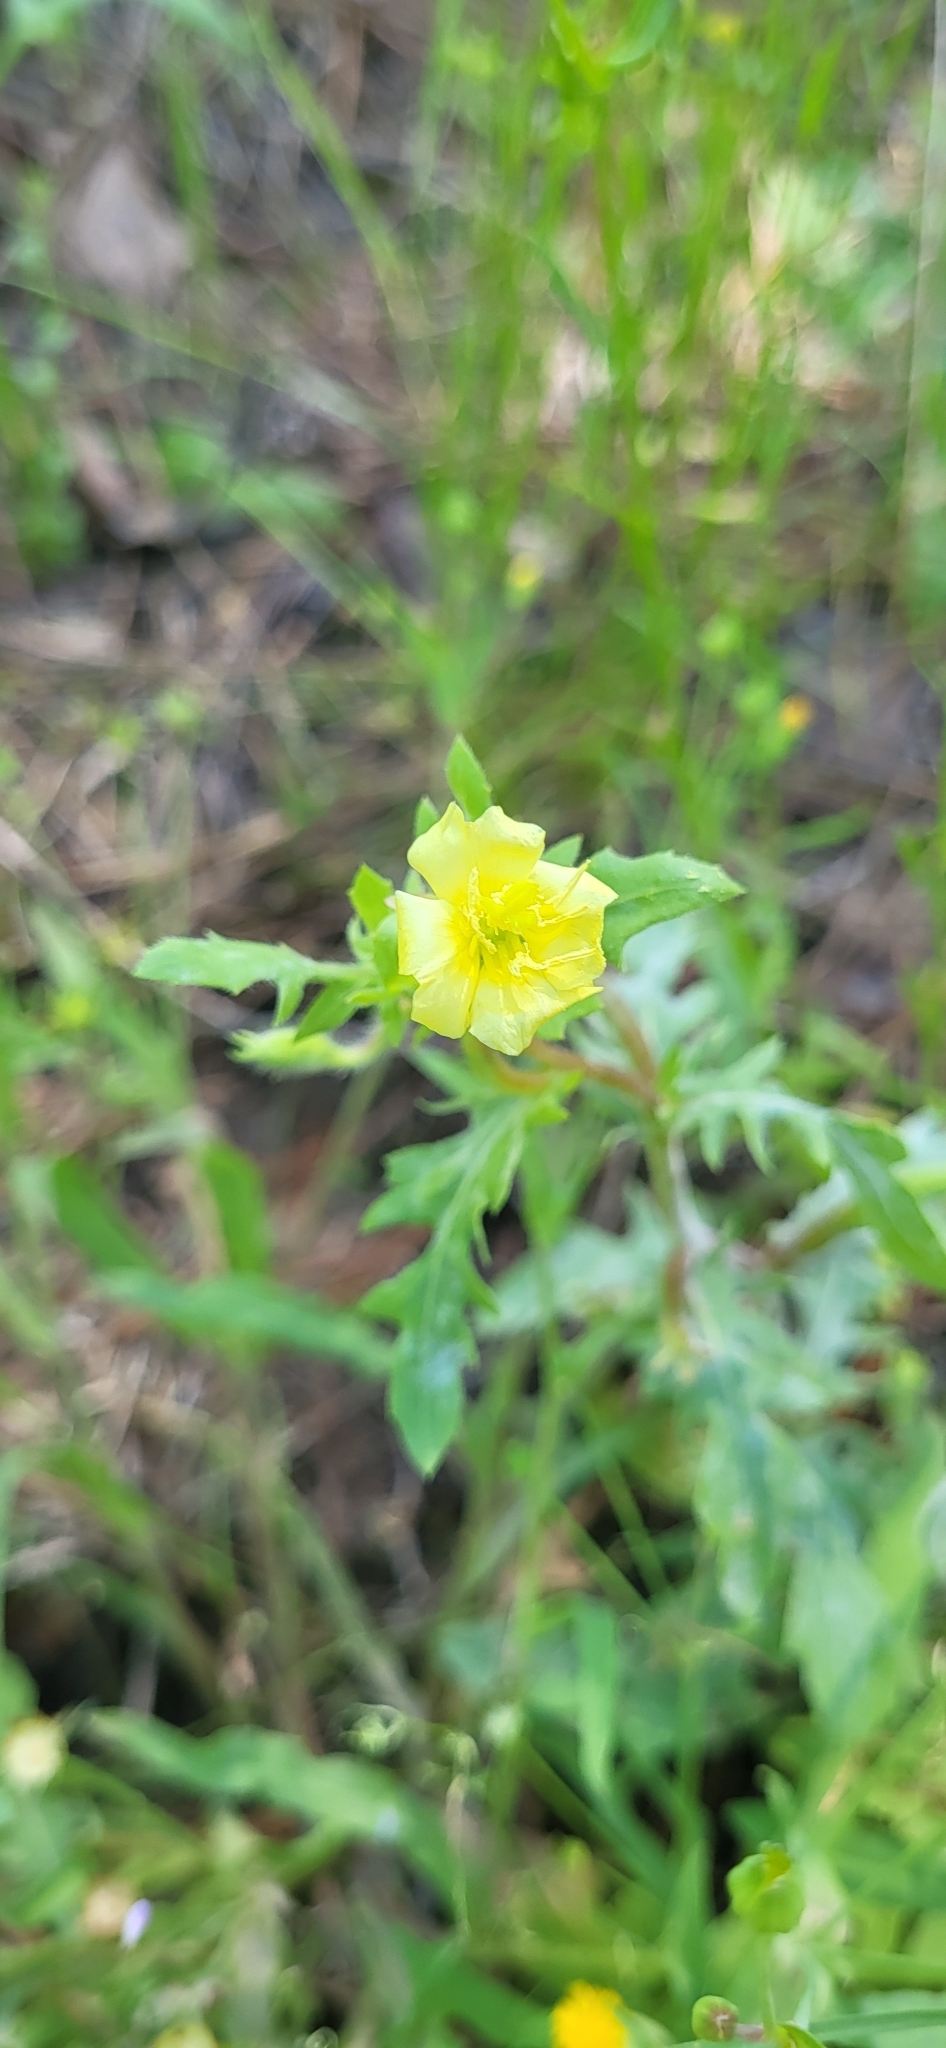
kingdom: Plantae
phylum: Tracheophyta
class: Magnoliopsida
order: Myrtales
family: Onagraceae
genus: Oenothera
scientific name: Oenothera laciniata
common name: Cut-leaved evening-primrose
